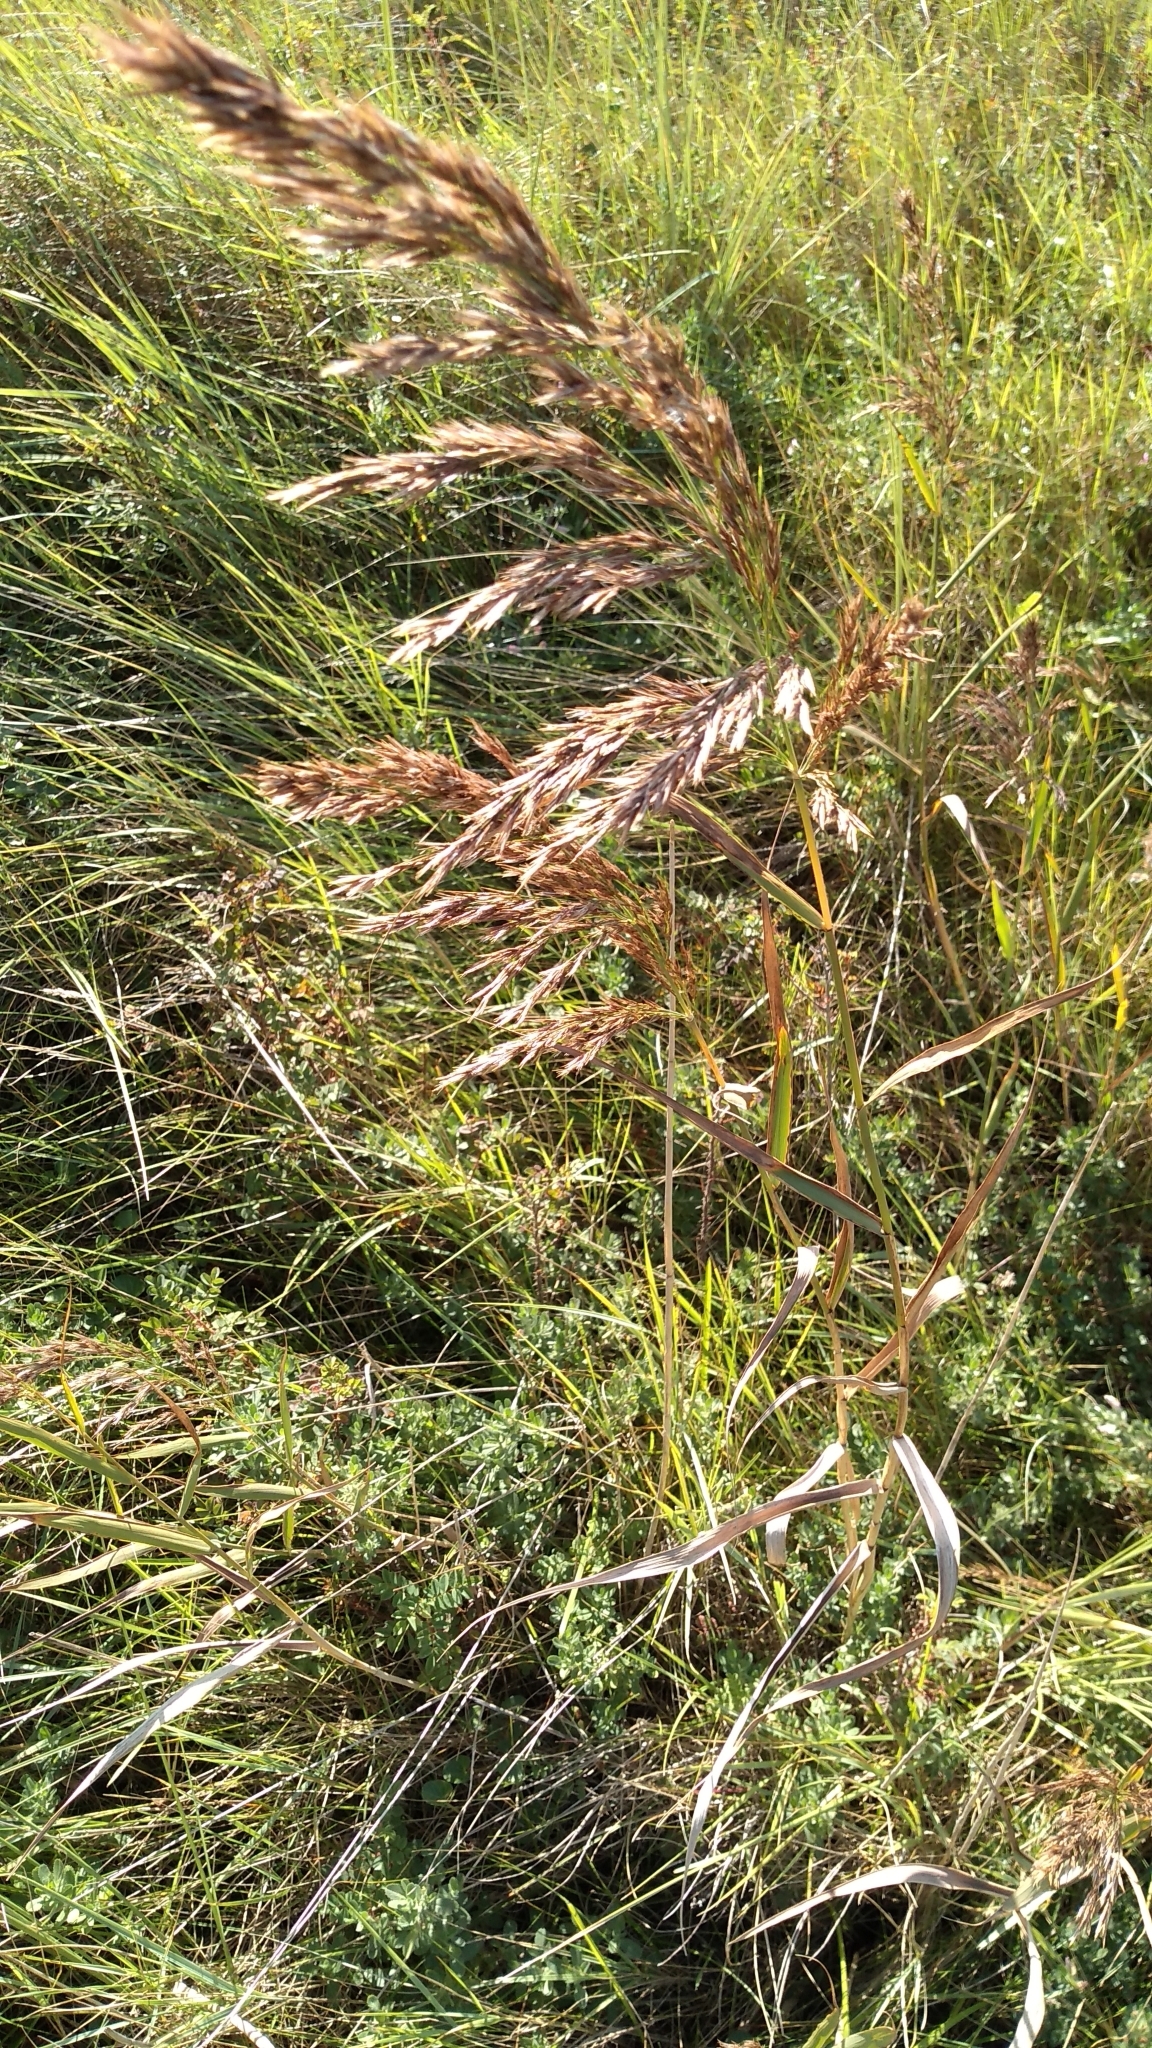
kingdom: Plantae
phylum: Tracheophyta
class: Liliopsida
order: Poales
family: Poaceae
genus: Phragmites
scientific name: Phragmites australis
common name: Common reed
